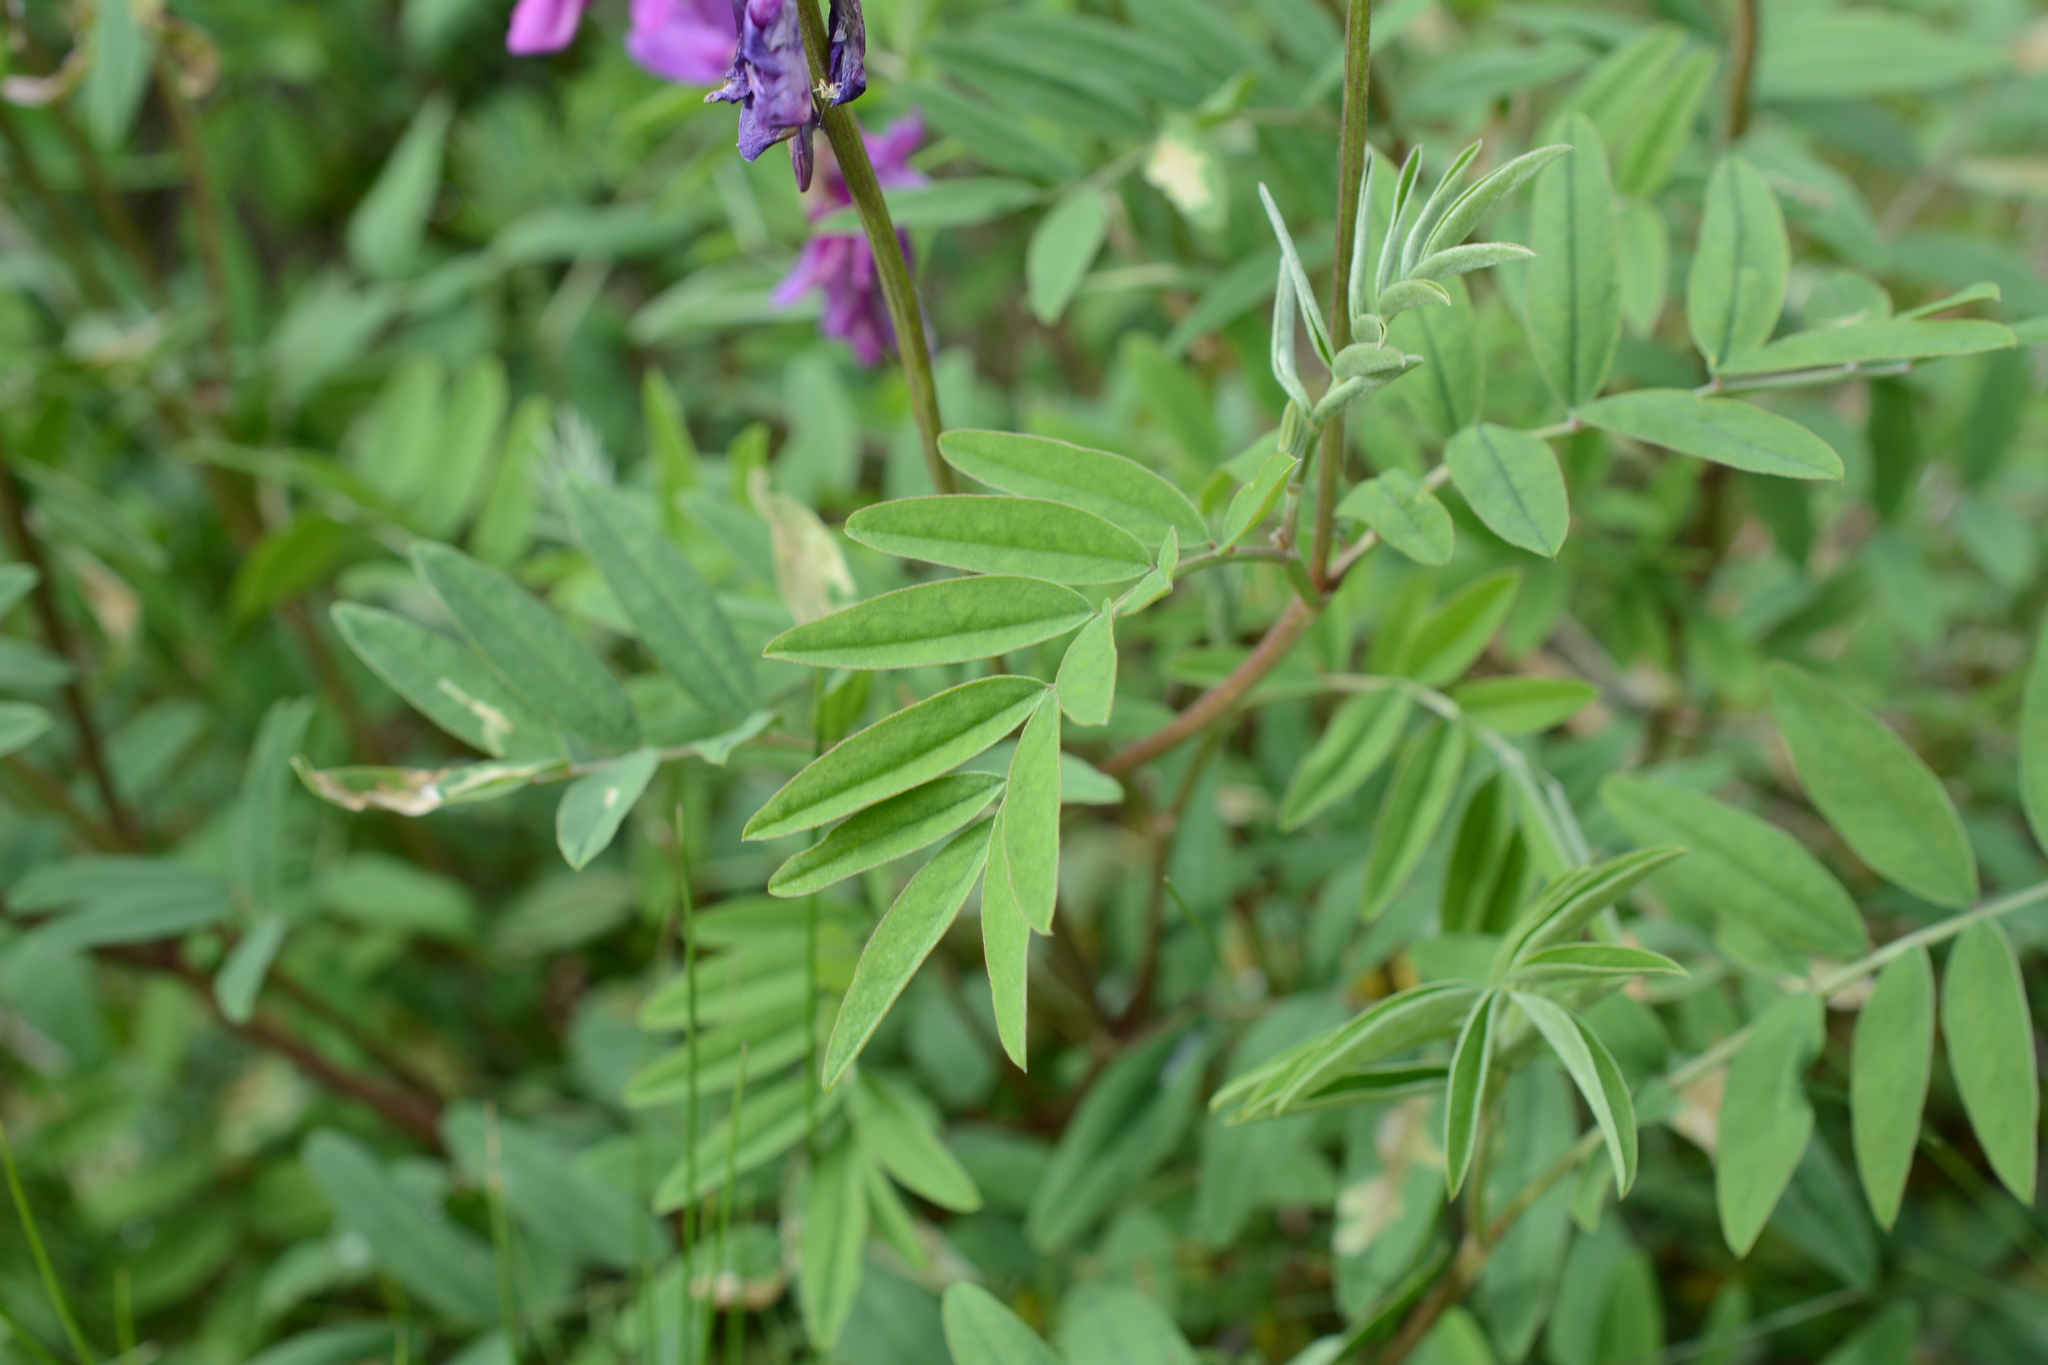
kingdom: Plantae
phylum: Tracheophyta
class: Magnoliopsida
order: Fabales
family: Fabaceae
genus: Hedysarum
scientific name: Hedysarum boreale
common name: Northern sweet-vetch
